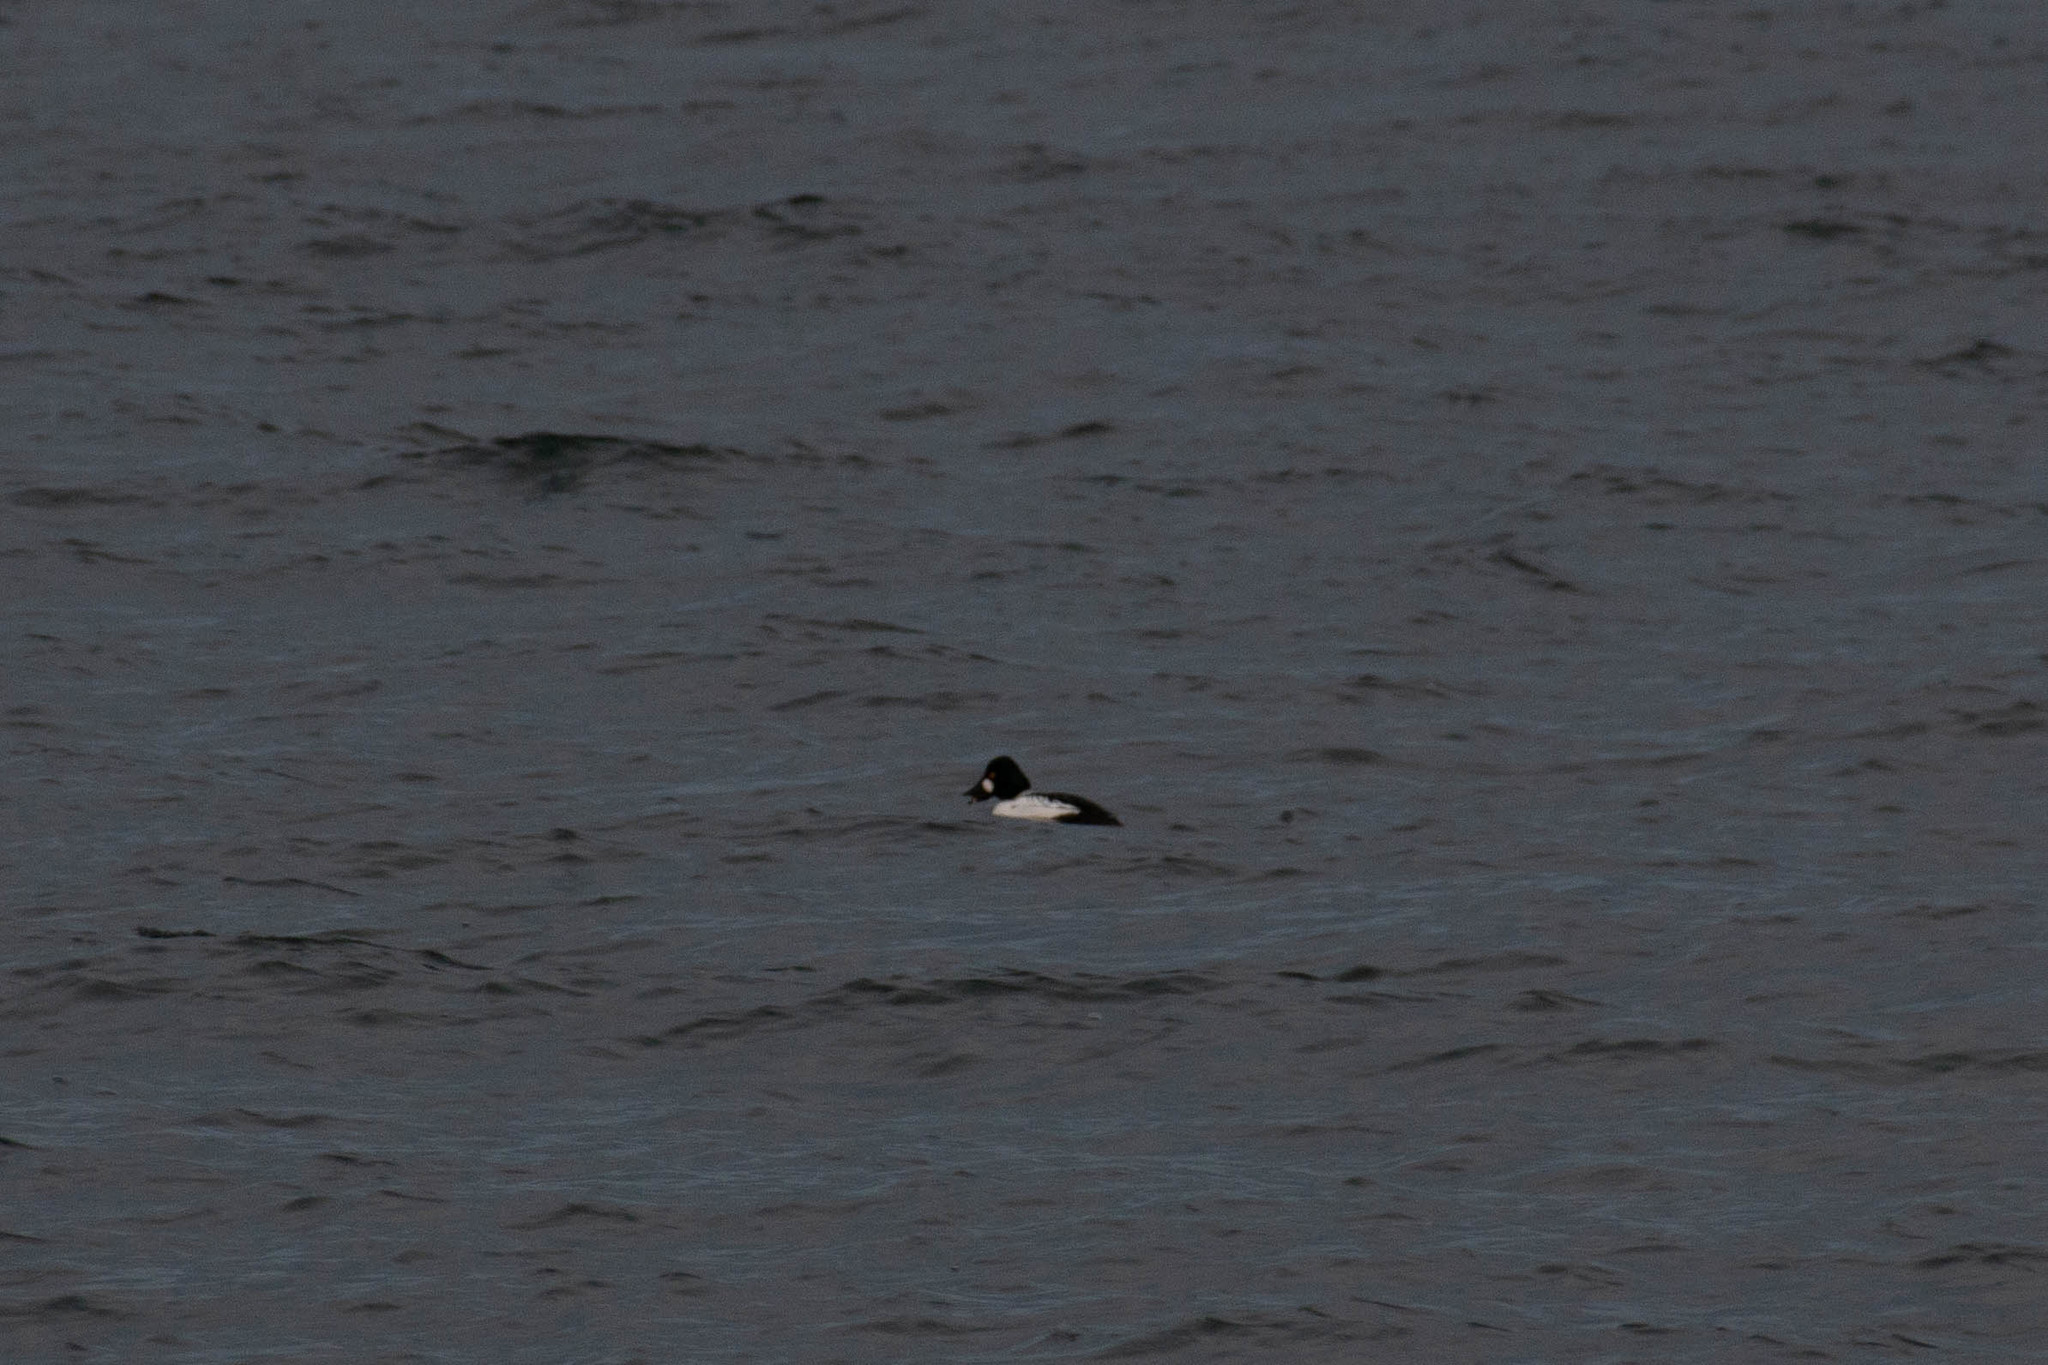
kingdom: Animalia
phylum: Chordata
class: Aves
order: Anseriformes
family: Anatidae
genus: Bucephala
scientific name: Bucephala clangula
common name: Common goldeneye
